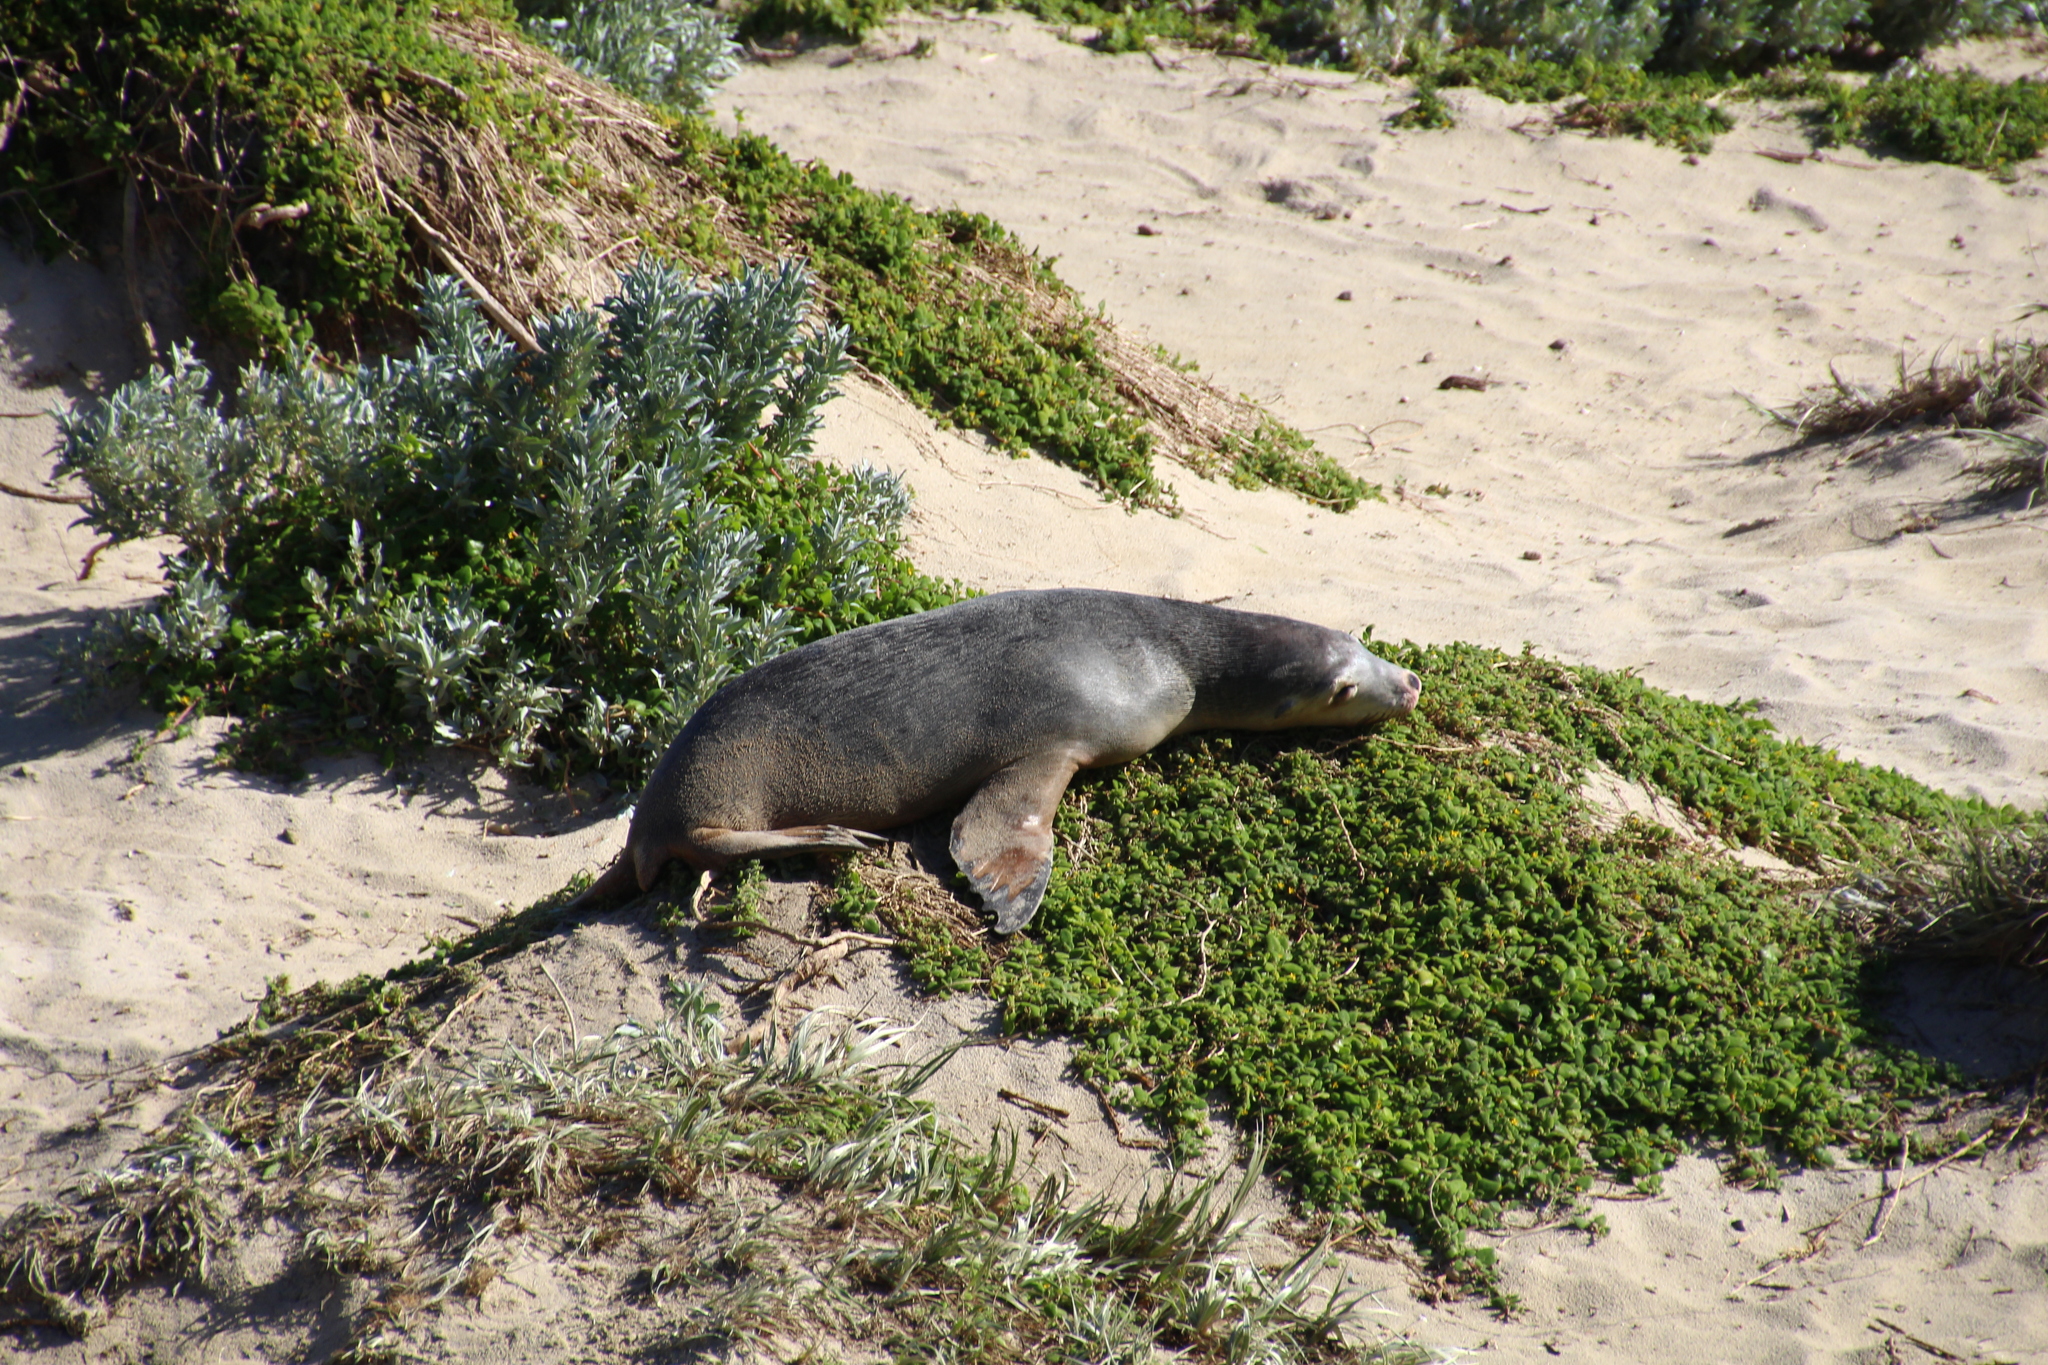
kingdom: Animalia
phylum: Chordata
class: Mammalia
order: Carnivora
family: Otariidae
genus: Neophoca
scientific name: Neophoca cinerea
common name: Australian sea lion
